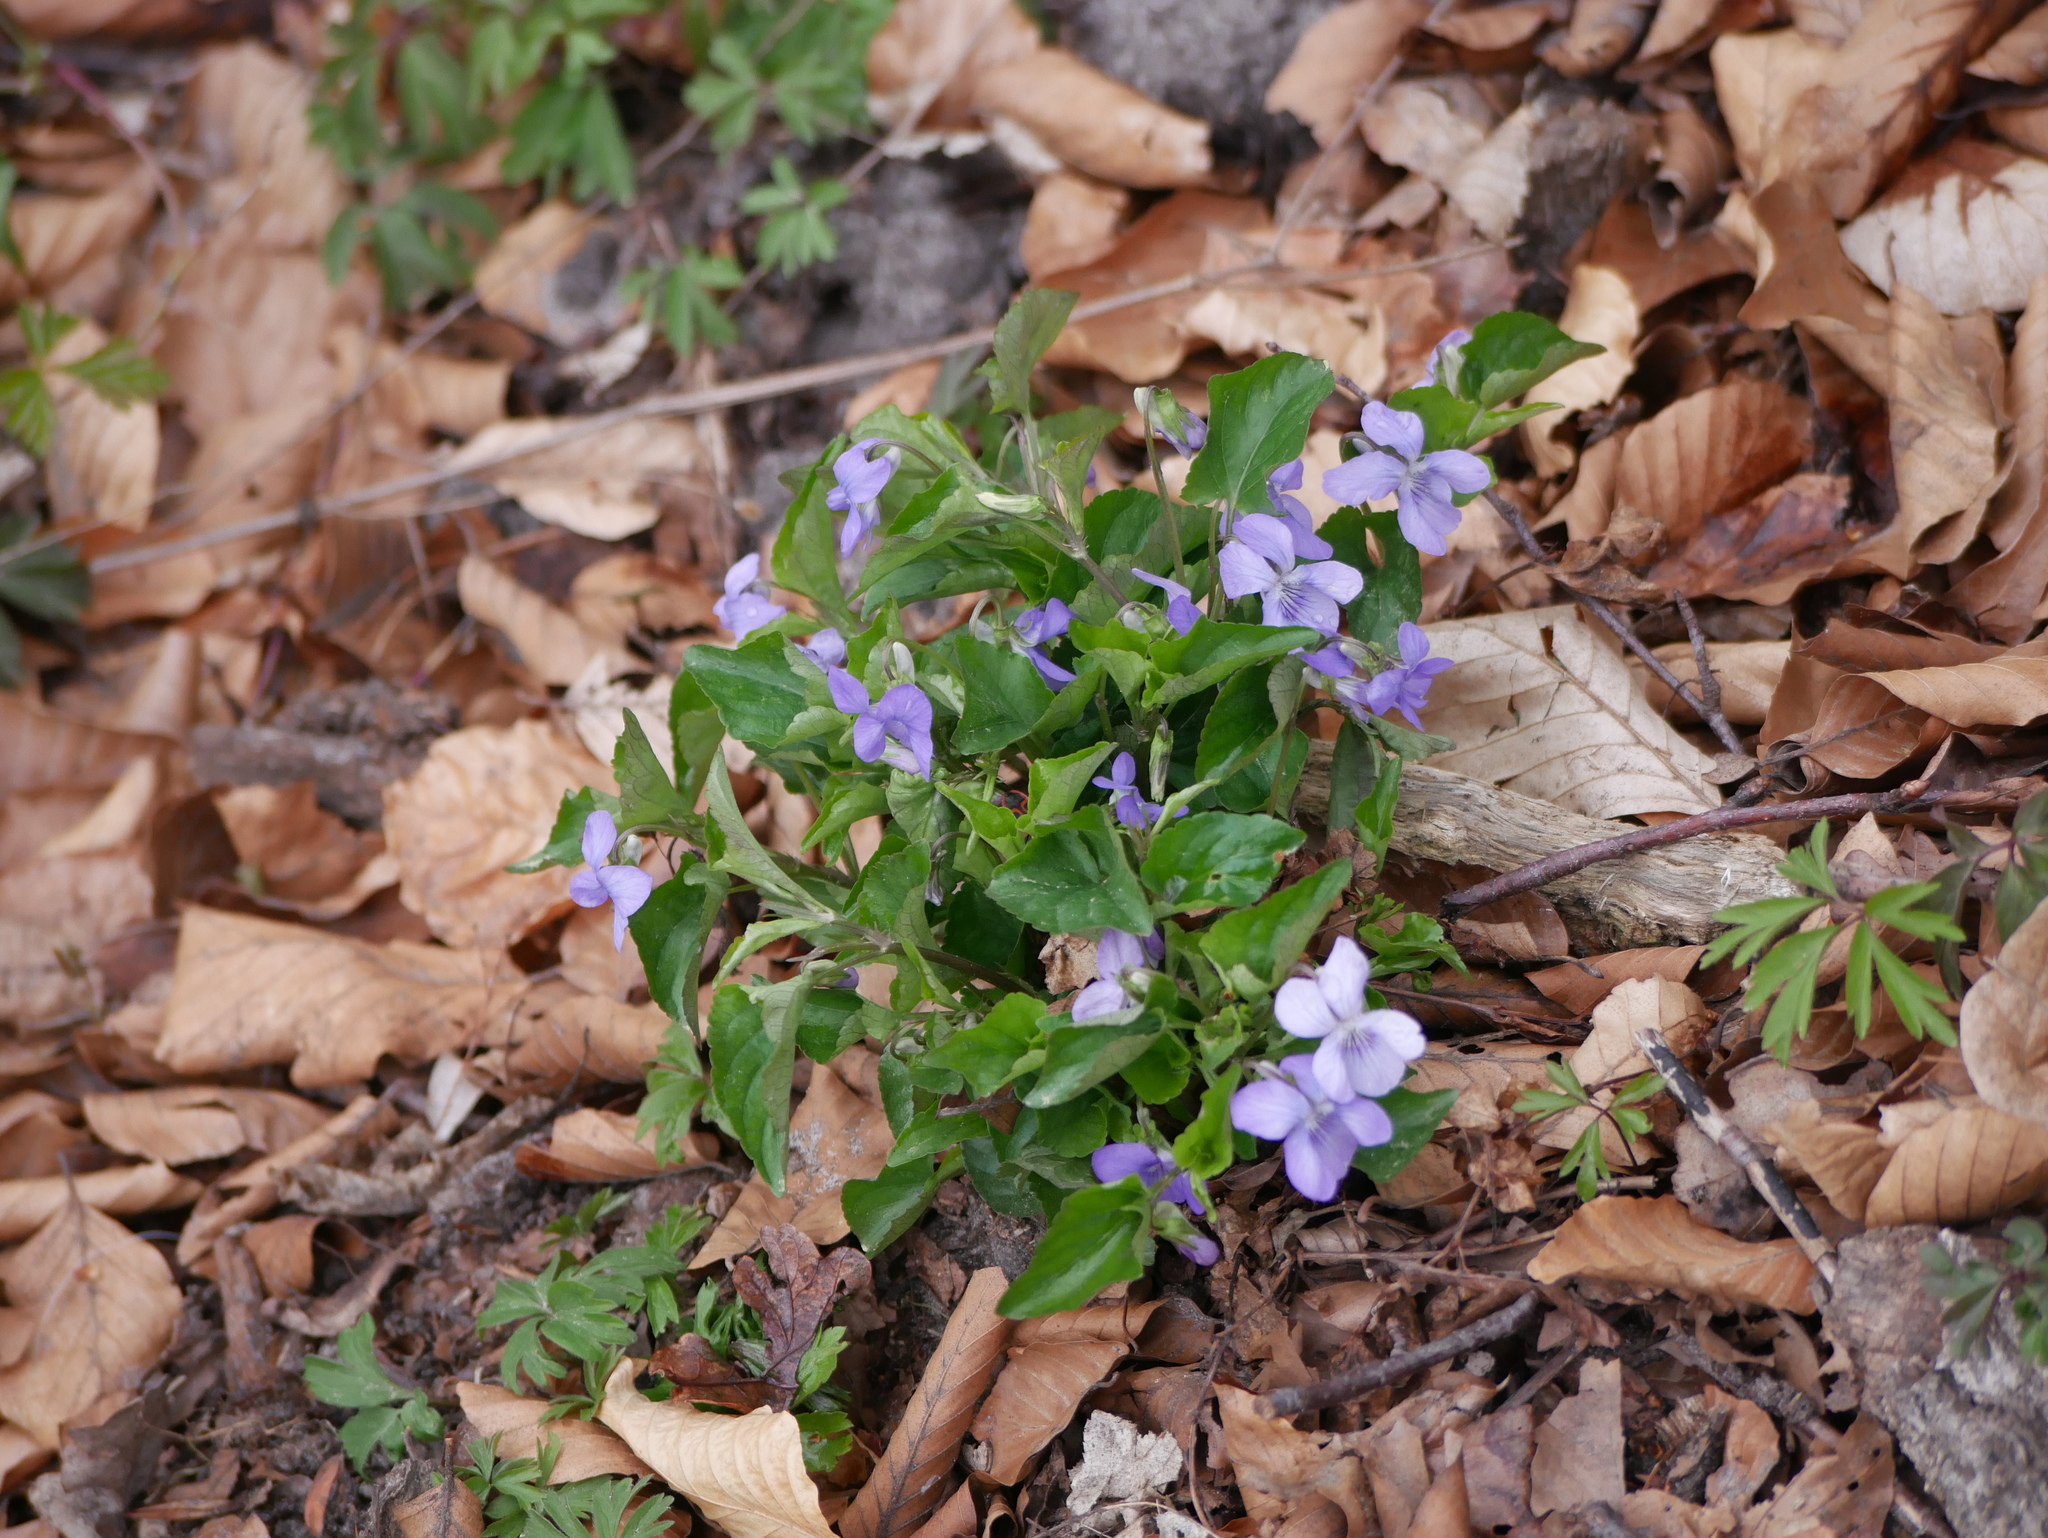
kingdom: Plantae
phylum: Tracheophyta
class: Magnoliopsida
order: Malpighiales
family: Violaceae
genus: Viola
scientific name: Viola riviniana
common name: Common dog-violet
